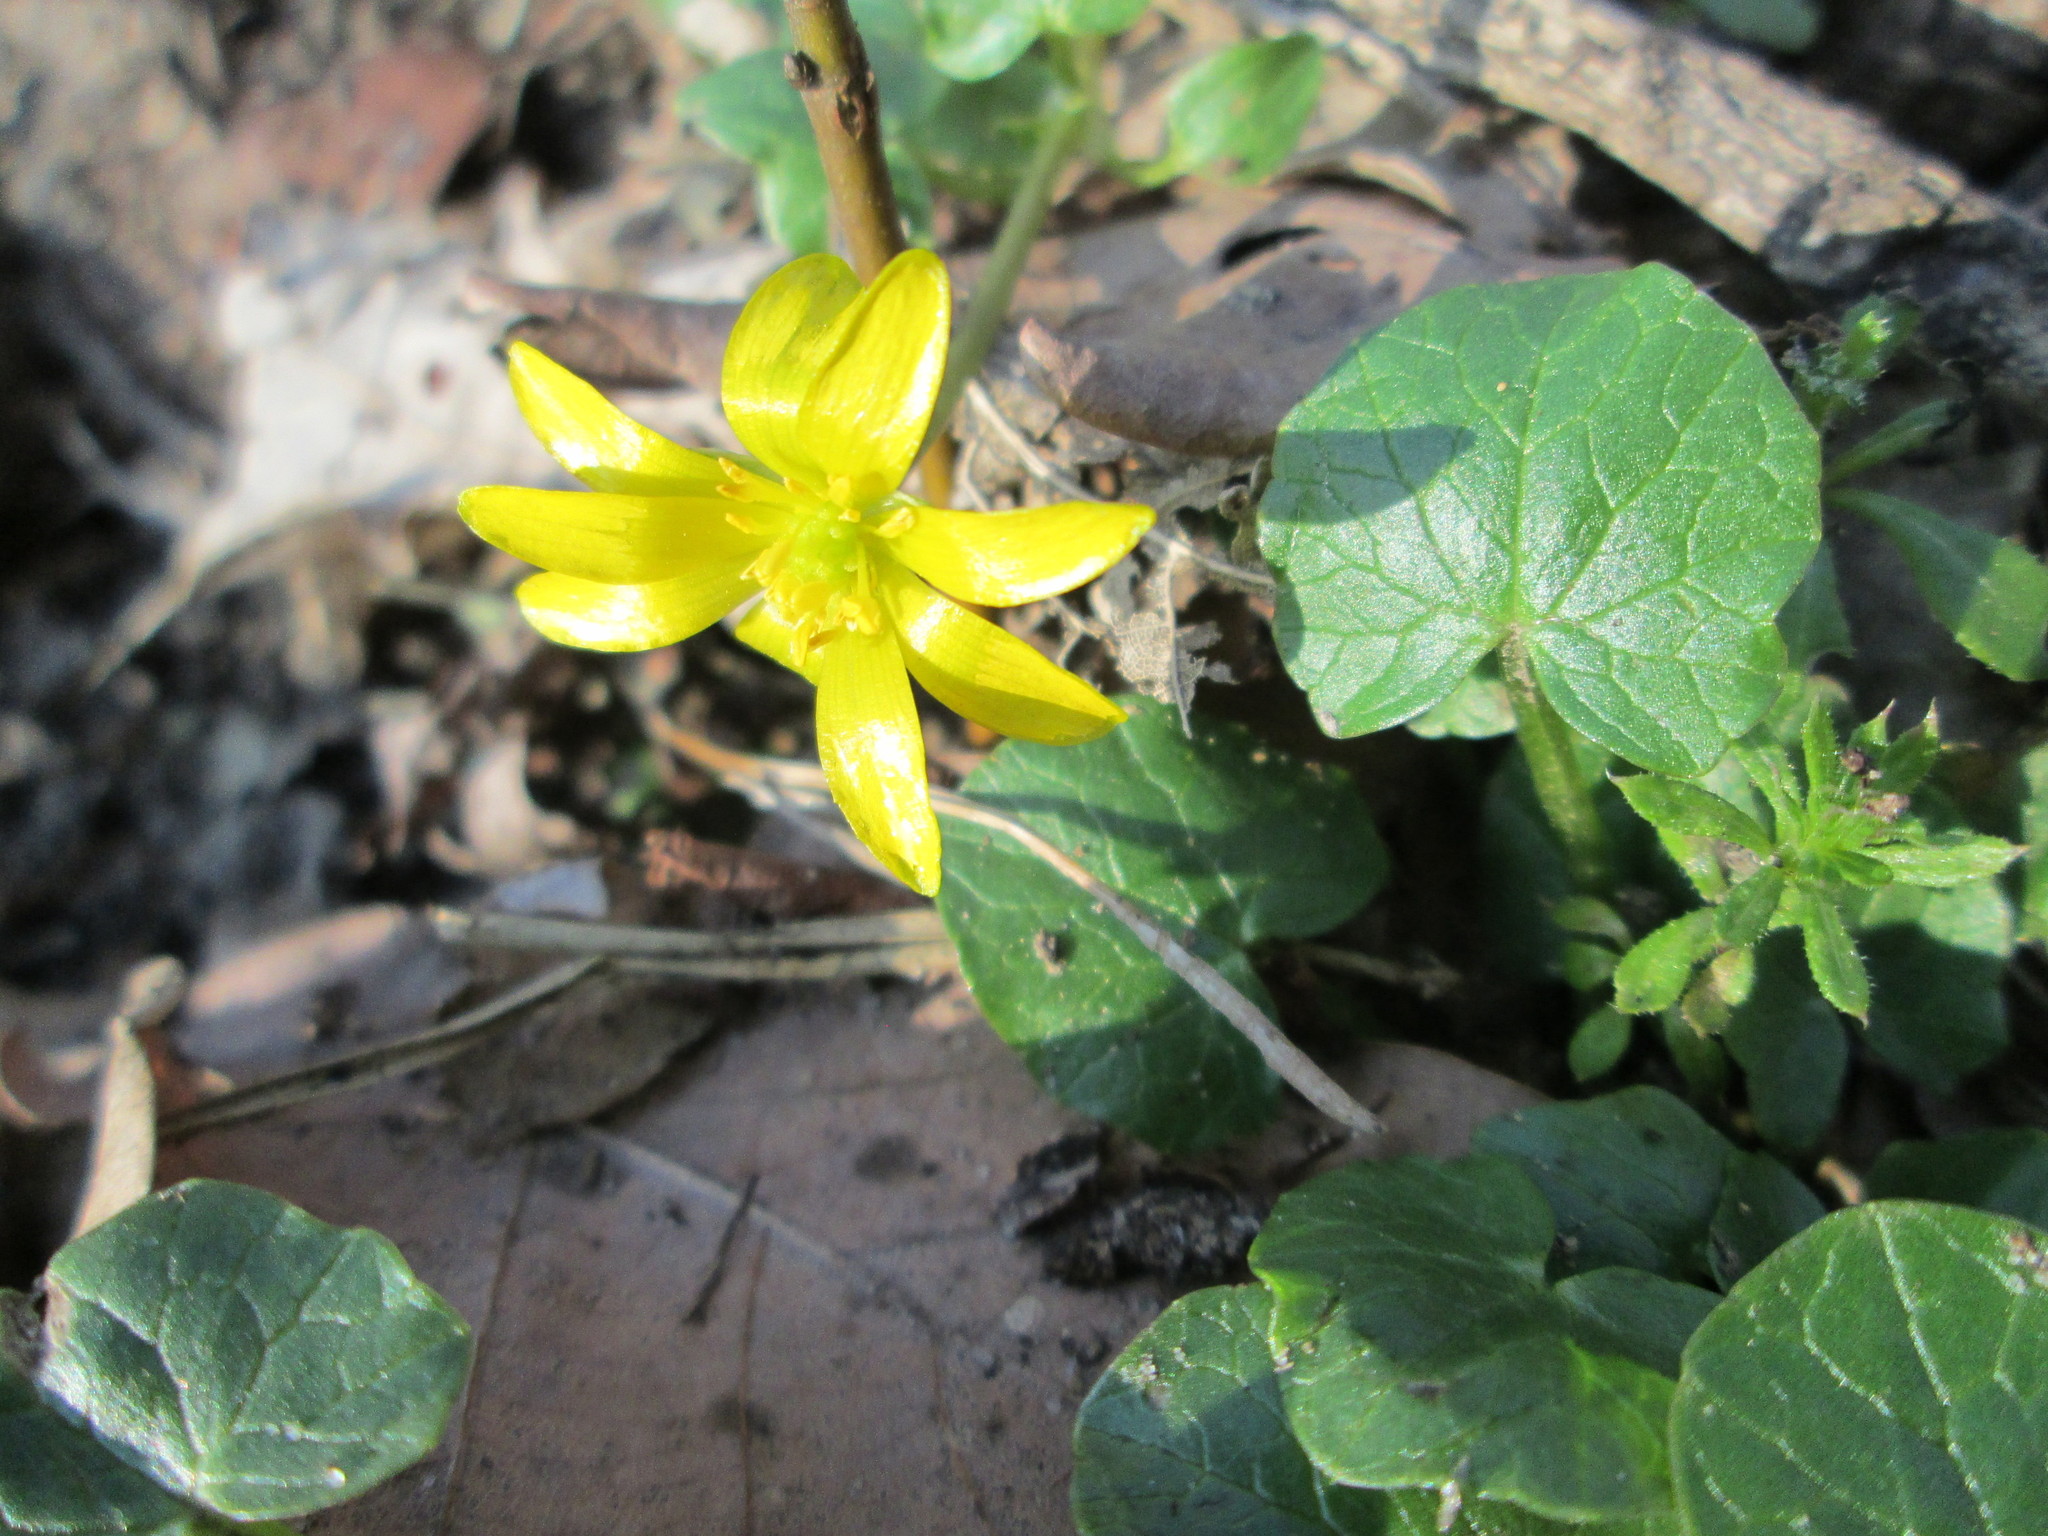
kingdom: Plantae
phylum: Tracheophyta
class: Magnoliopsida
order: Ranunculales
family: Ranunculaceae
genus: Ficaria
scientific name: Ficaria verna
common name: Lesser celandine
